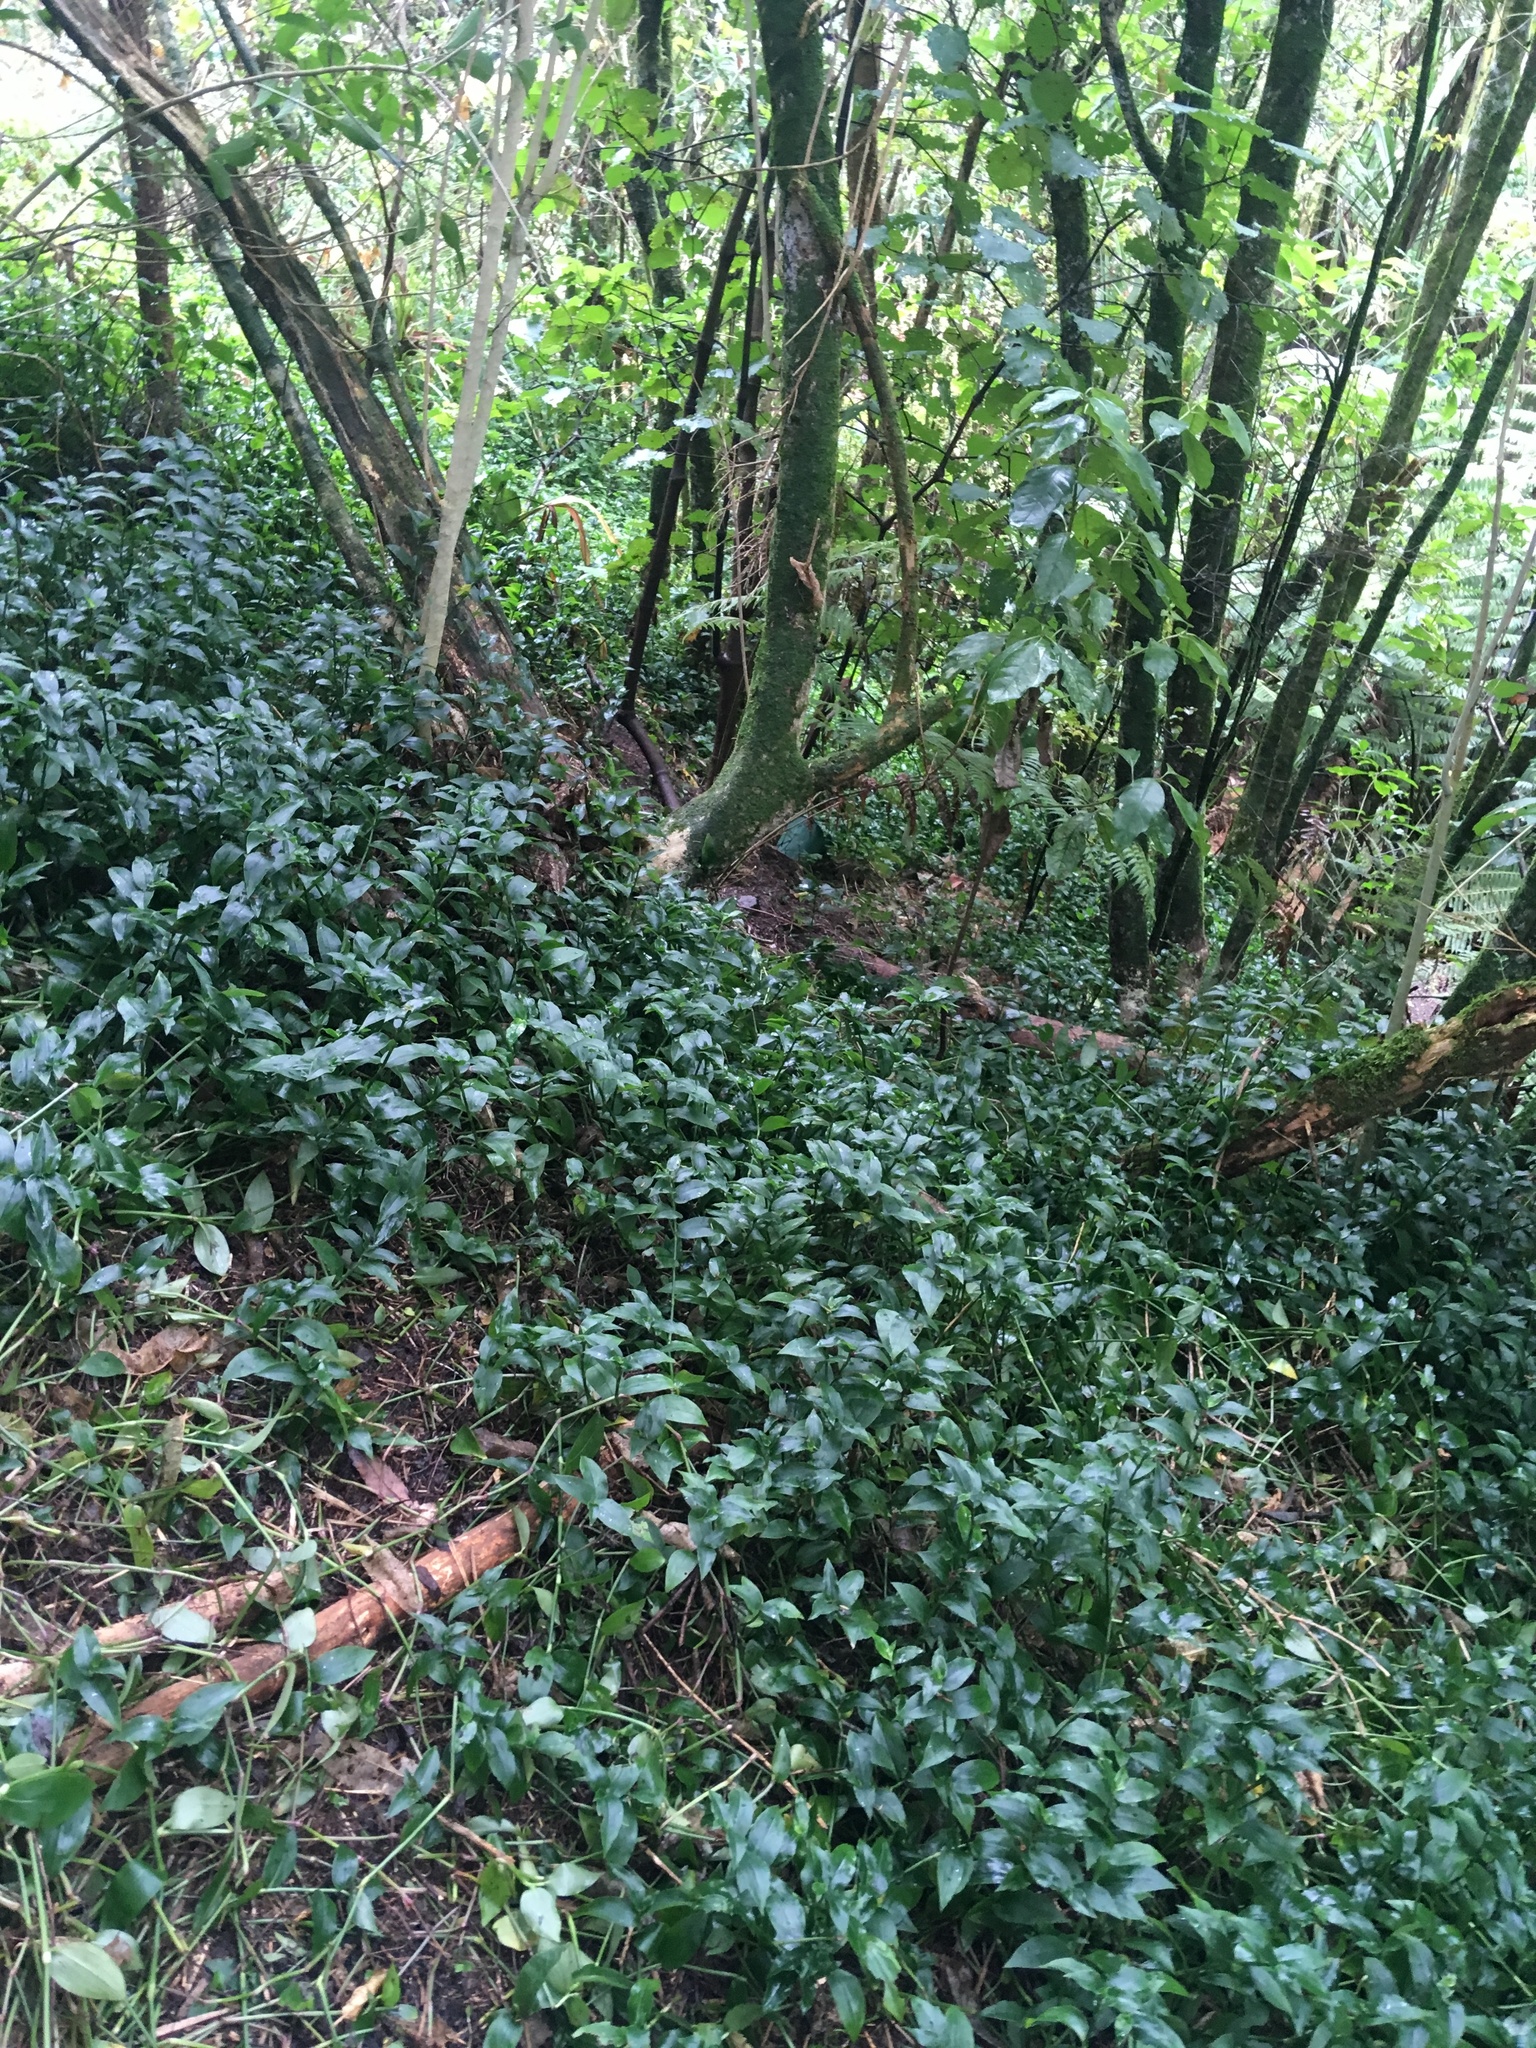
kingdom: Plantae
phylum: Tracheophyta
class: Liliopsida
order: Commelinales
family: Commelinaceae
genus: Tradescantia
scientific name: Tradescantia fluminensis
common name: Wandering-jew
